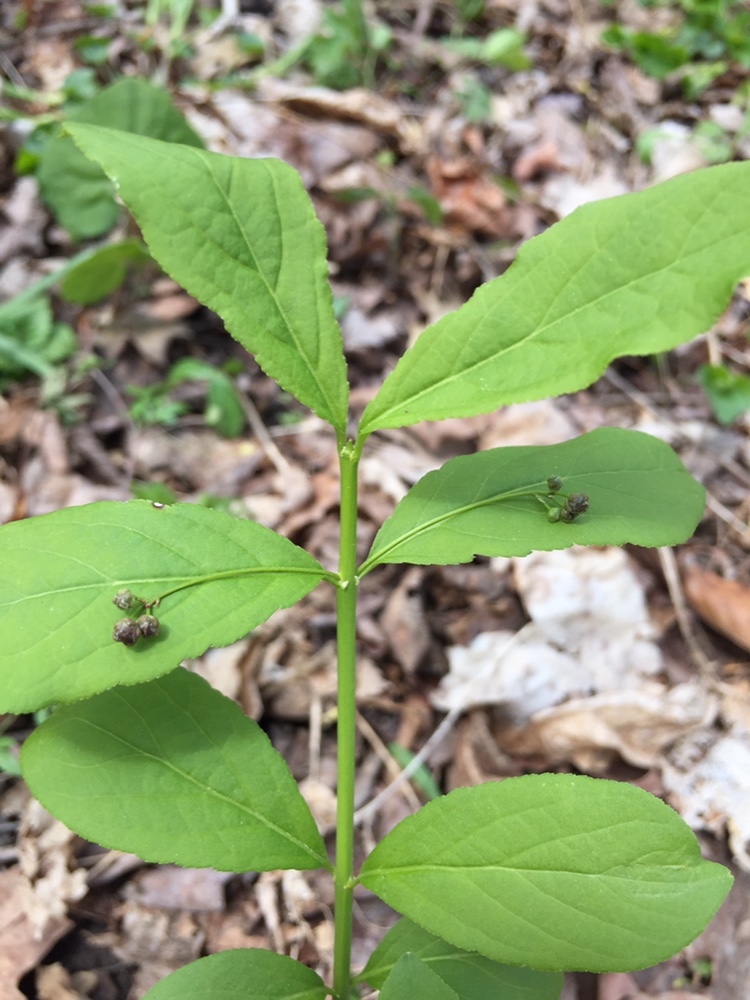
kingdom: Plantae
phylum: Tracheophyta
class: Magnoliopsida
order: Celastrales
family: Celastraceae
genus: Euonymus
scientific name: Euonymus obovatus
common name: Running strawberry-bush
